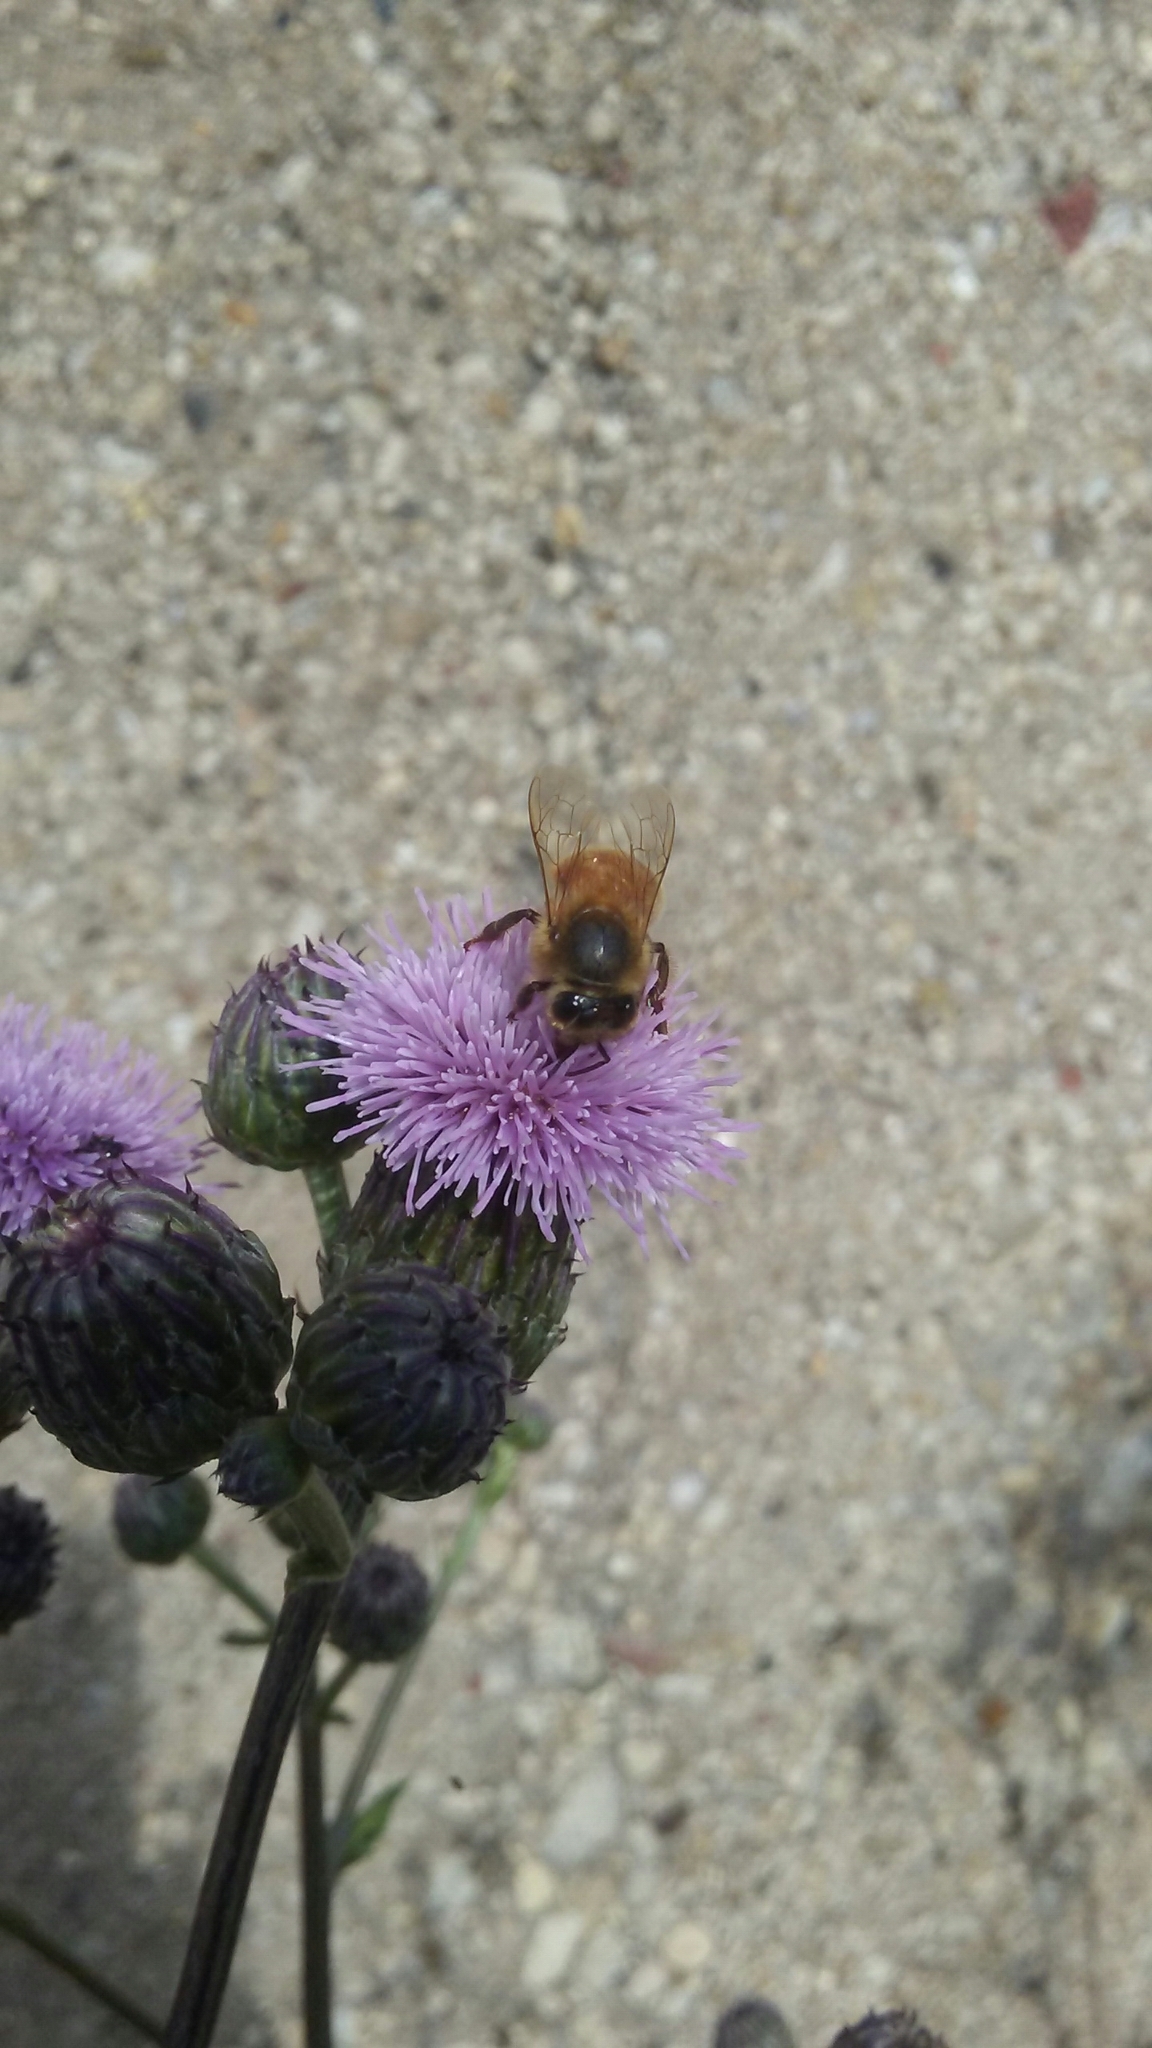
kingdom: Animalia
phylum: Arthropoda
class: Insecta
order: Hymenoptera
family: Apidae
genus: Apis
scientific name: Apis mellifera
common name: Honey bee
